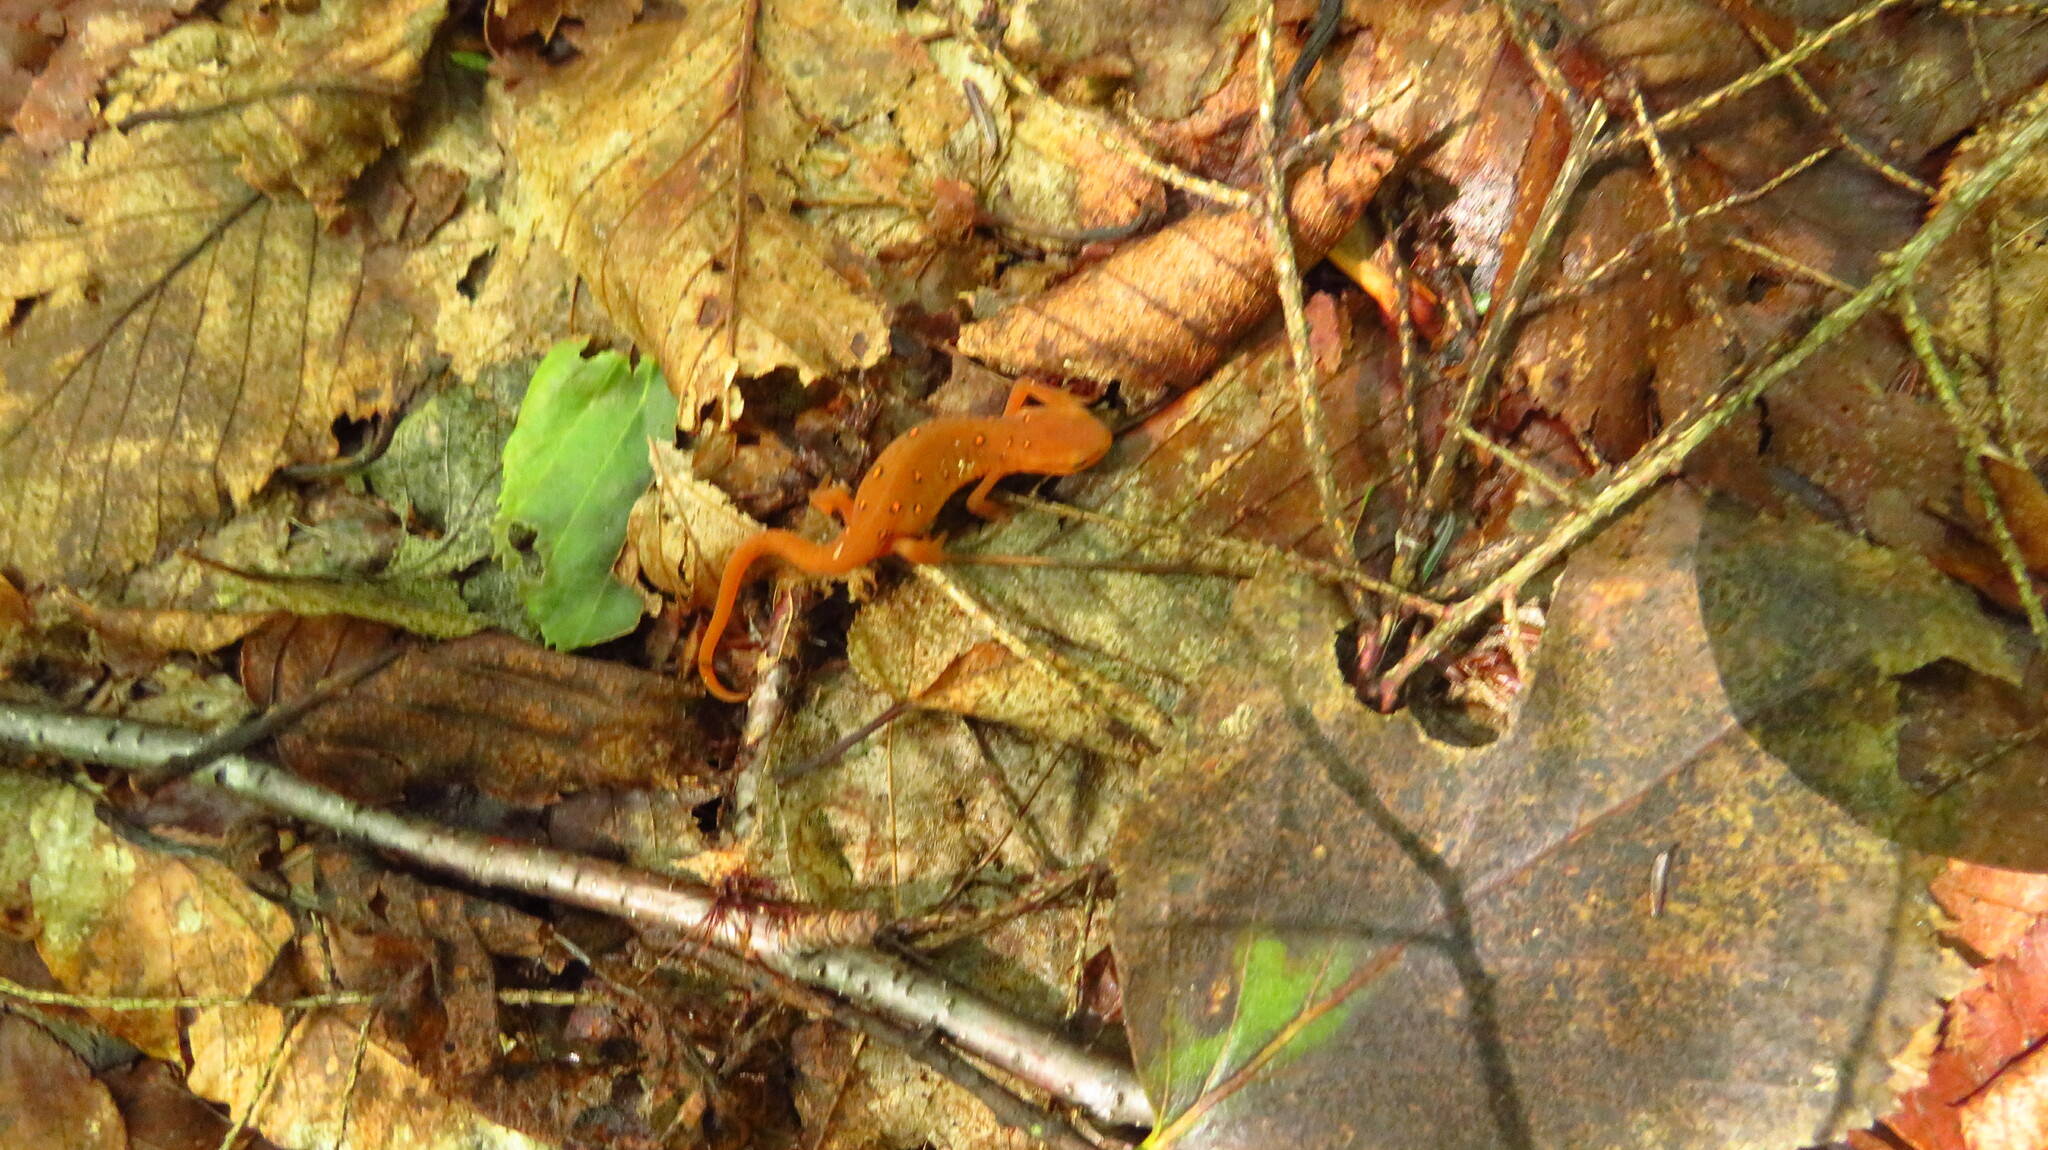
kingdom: Animalia
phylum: Chordata
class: Amphibia
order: Caudata
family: Salamandridae
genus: Notophthalmus
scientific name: Notophthalmus viridescens
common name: Eastern newt
